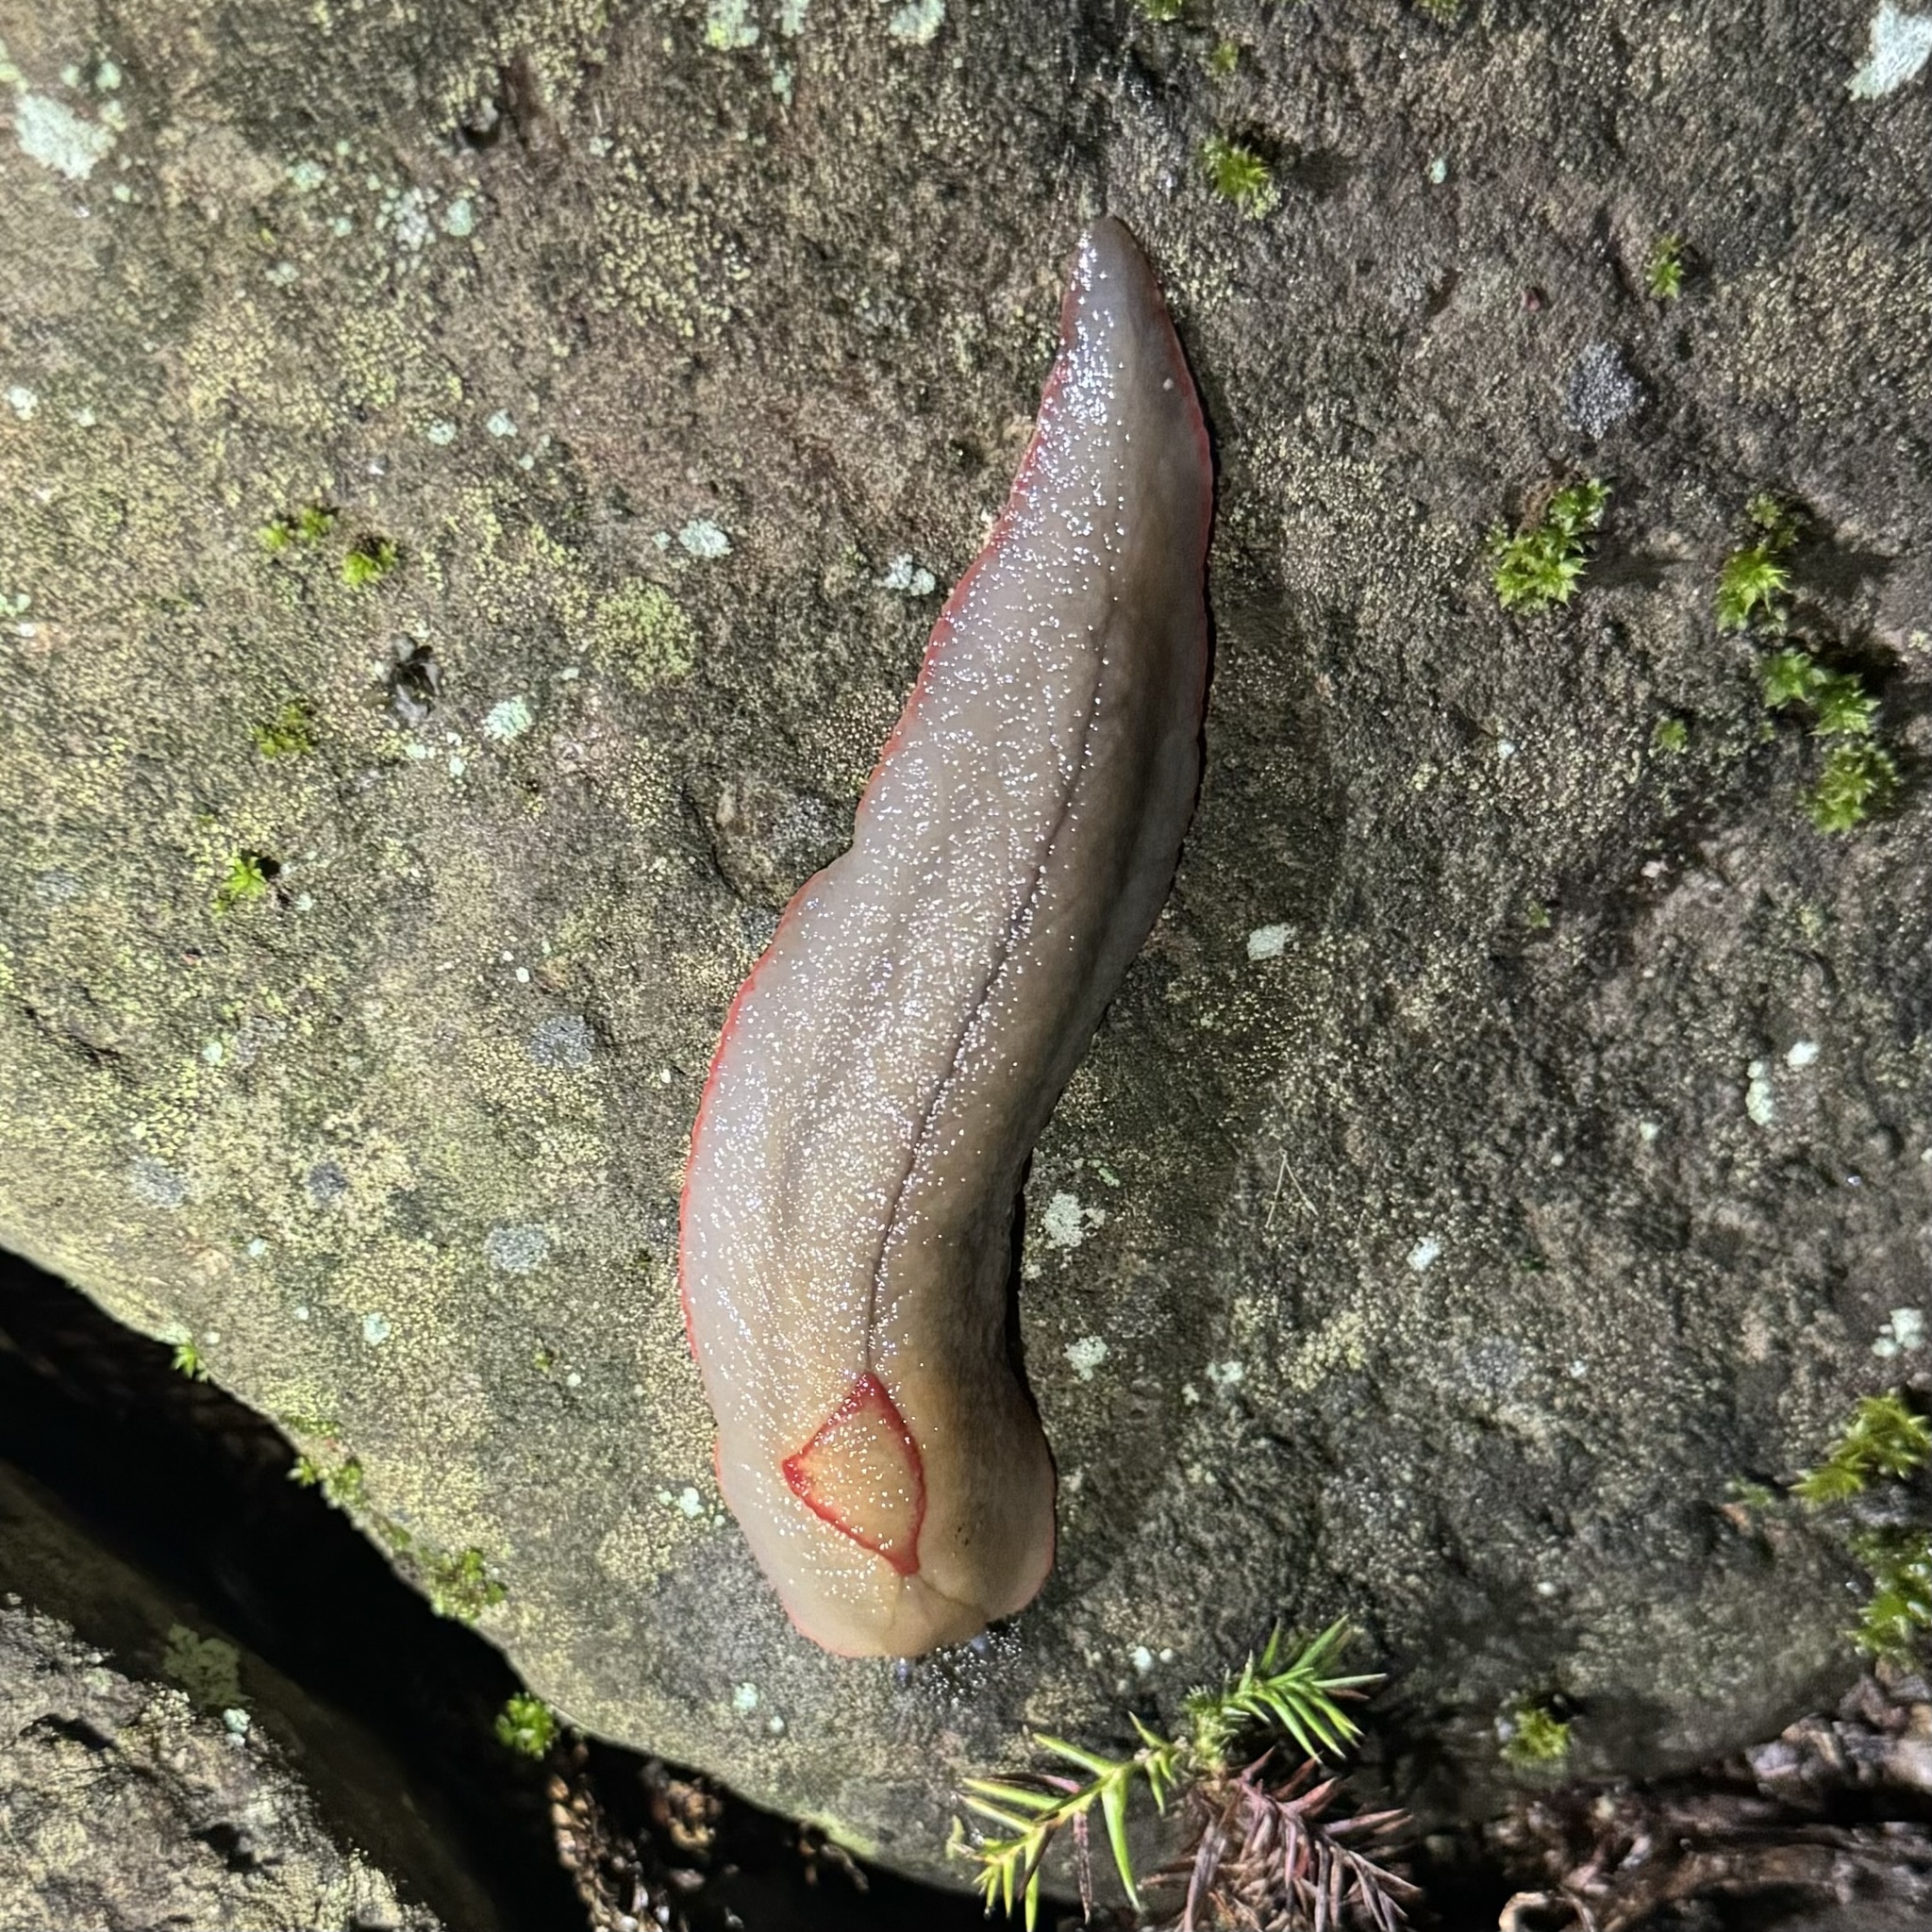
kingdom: Animalia
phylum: Mollusca
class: Gastropoda
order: Stylommatophora
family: Athoracophoridae
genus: Triboniophorus
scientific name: Triboniophorus graeffei
